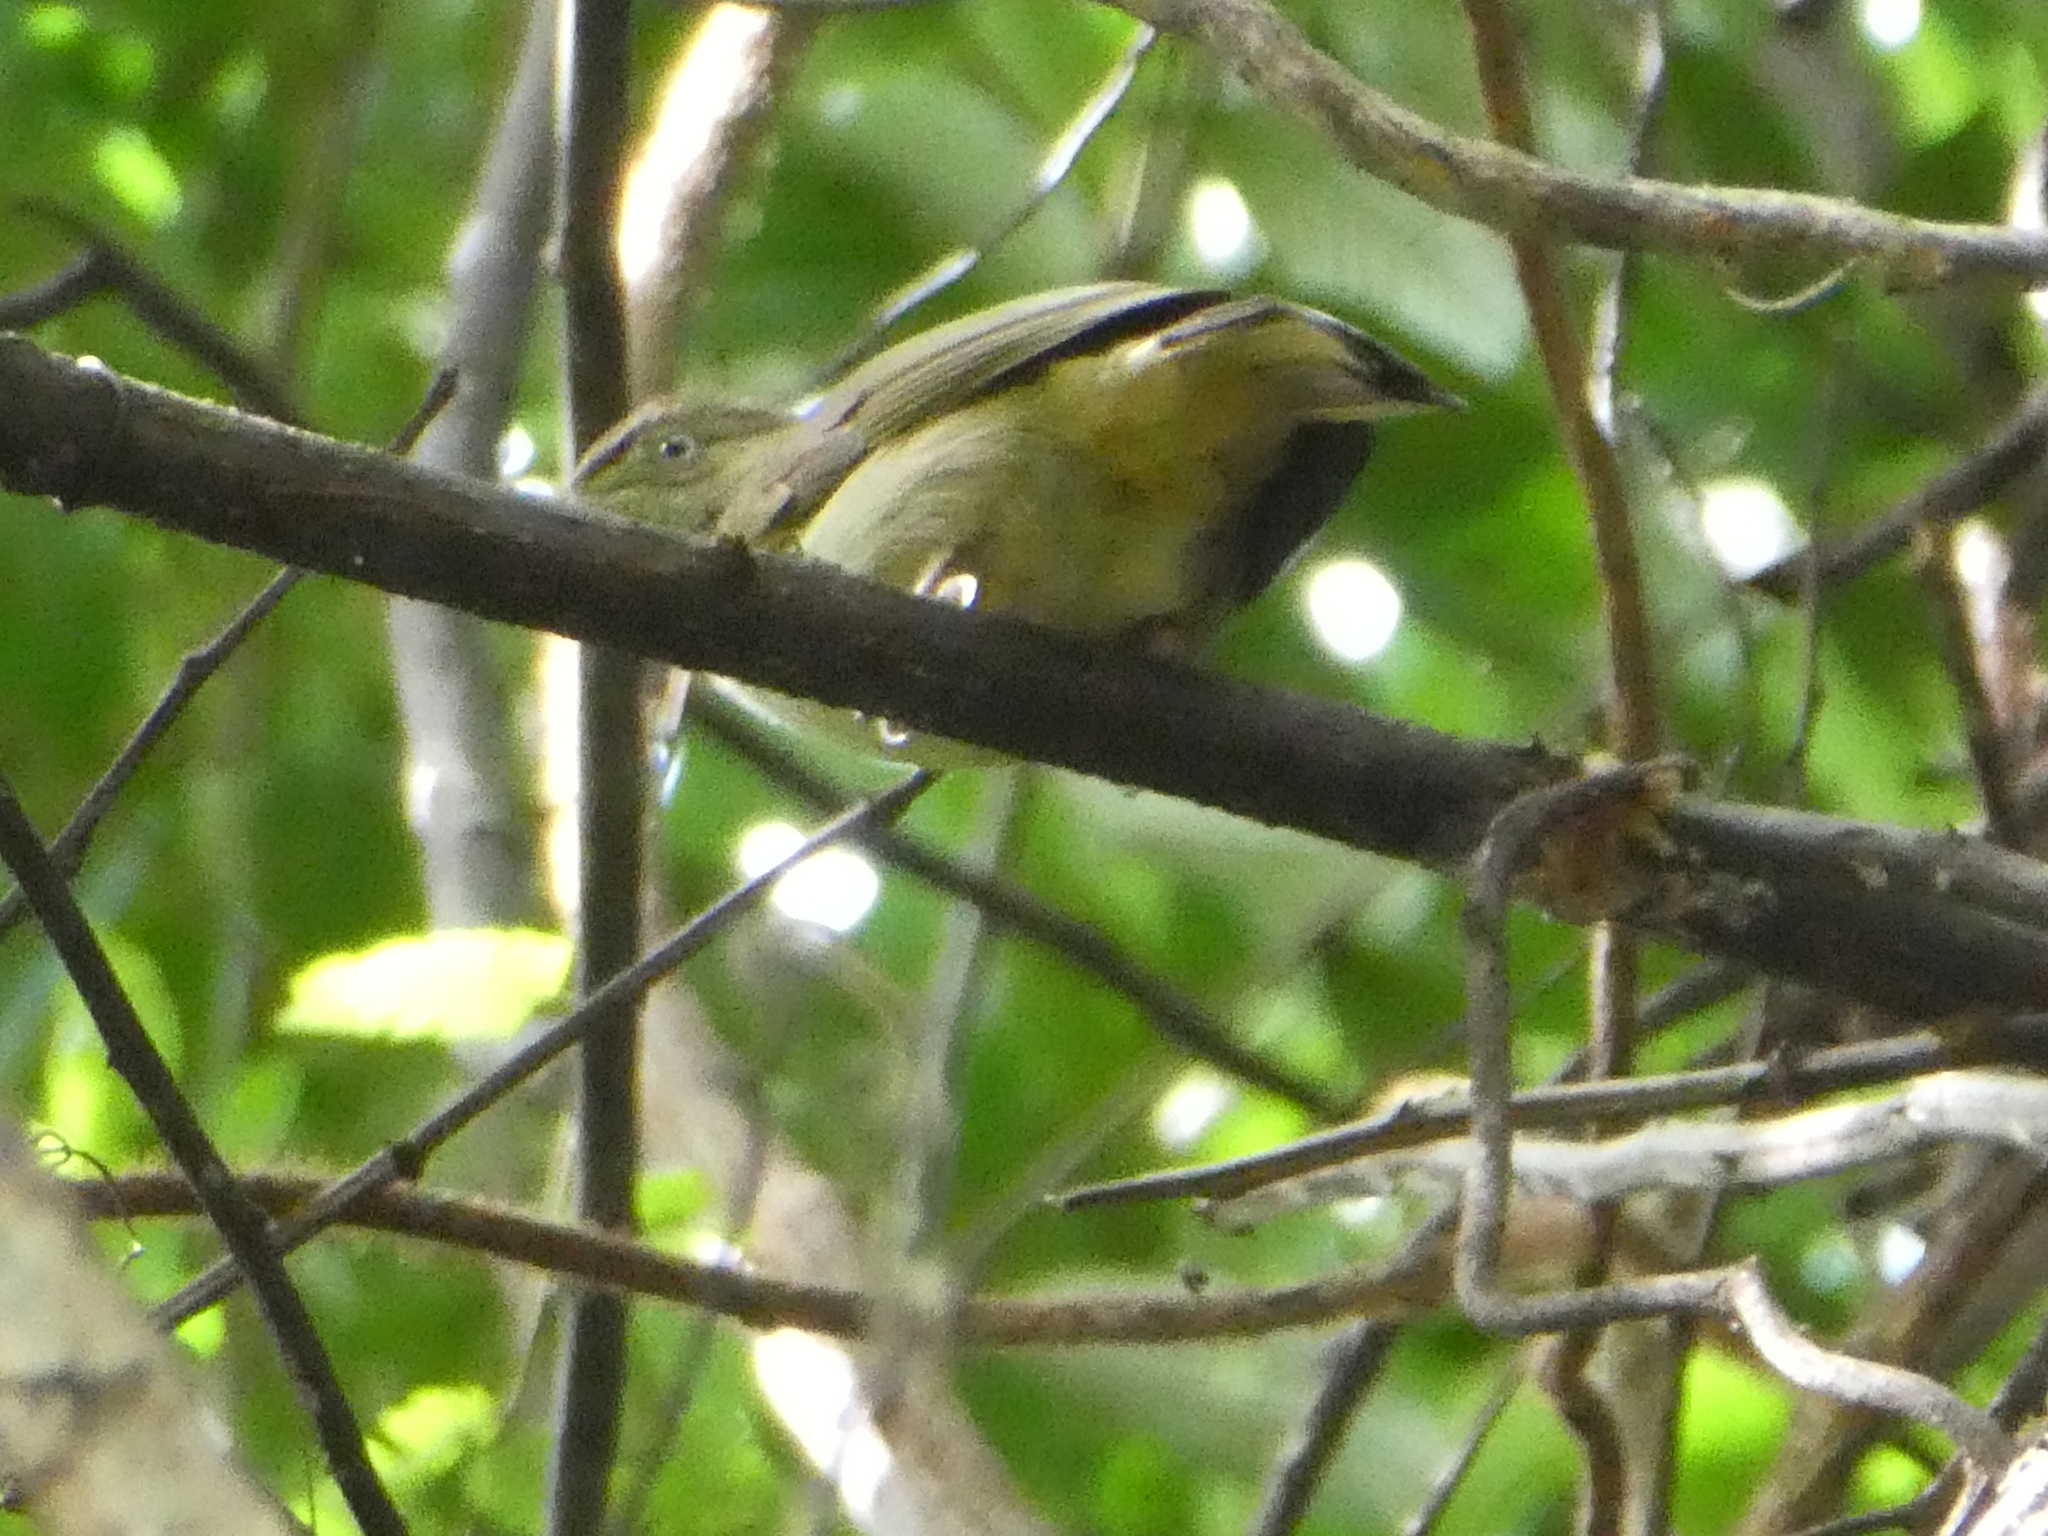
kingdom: Animalia
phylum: Chordata
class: Aves
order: Passeriformes
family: Pycnonotidae
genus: Iole
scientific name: Iole viridescens
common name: Olive bulbul
